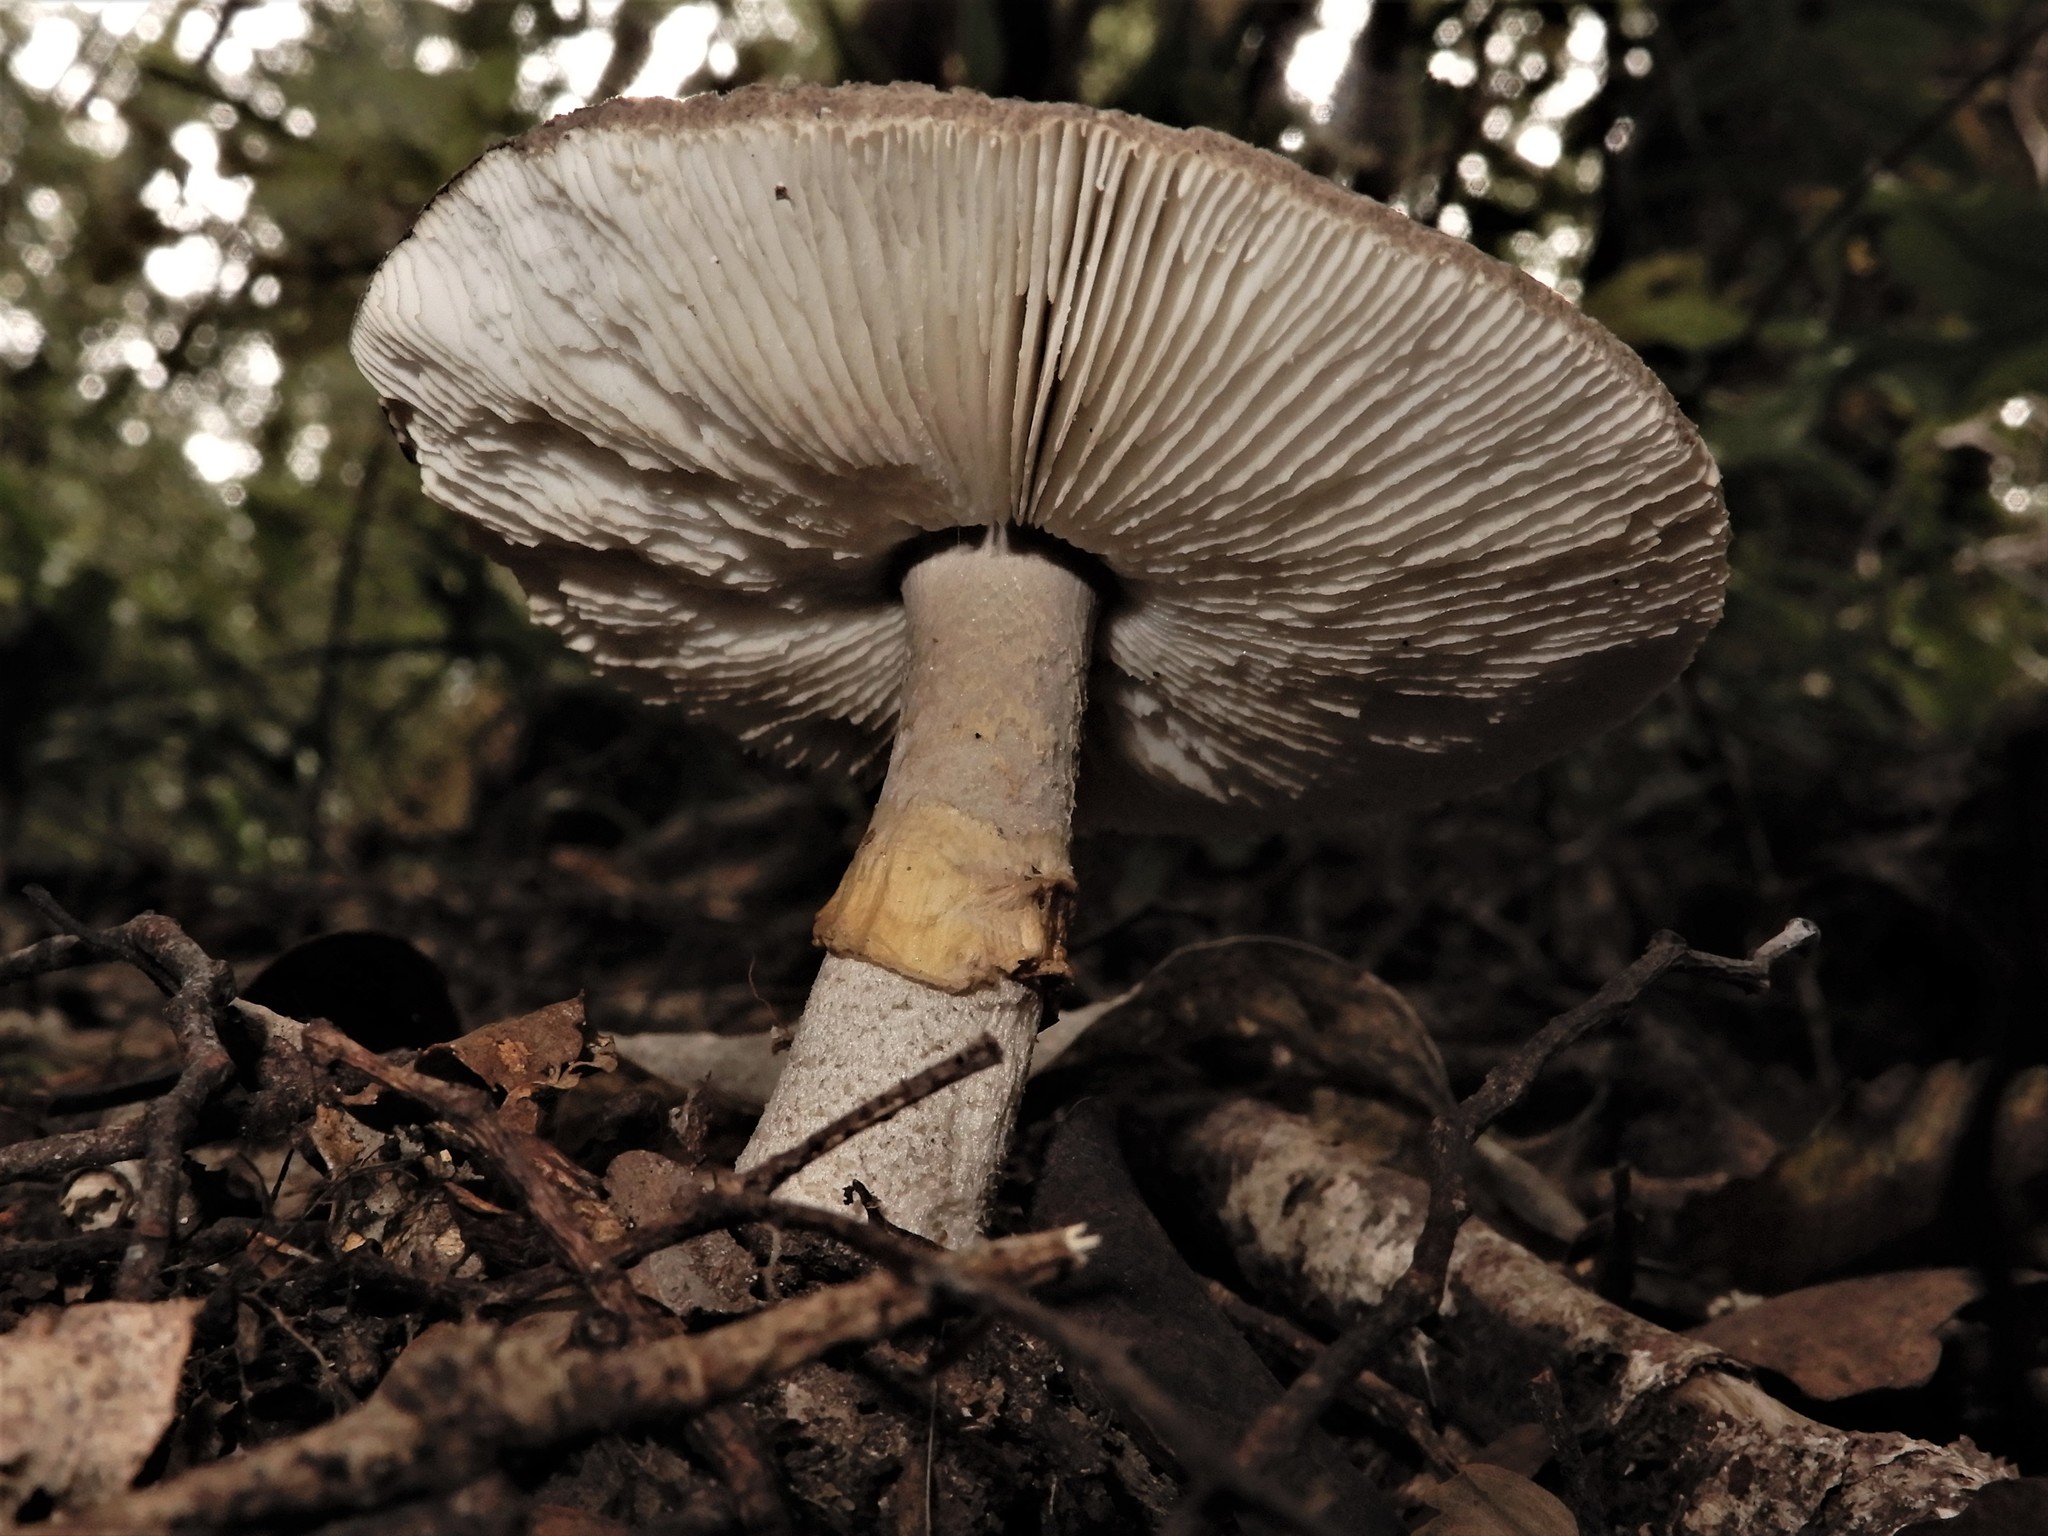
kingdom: Fungi
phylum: Basidiomycota
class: Agaricomycetes
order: Agaricales
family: Amanitaceae
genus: Amanita
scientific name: Amanita nothofagi
